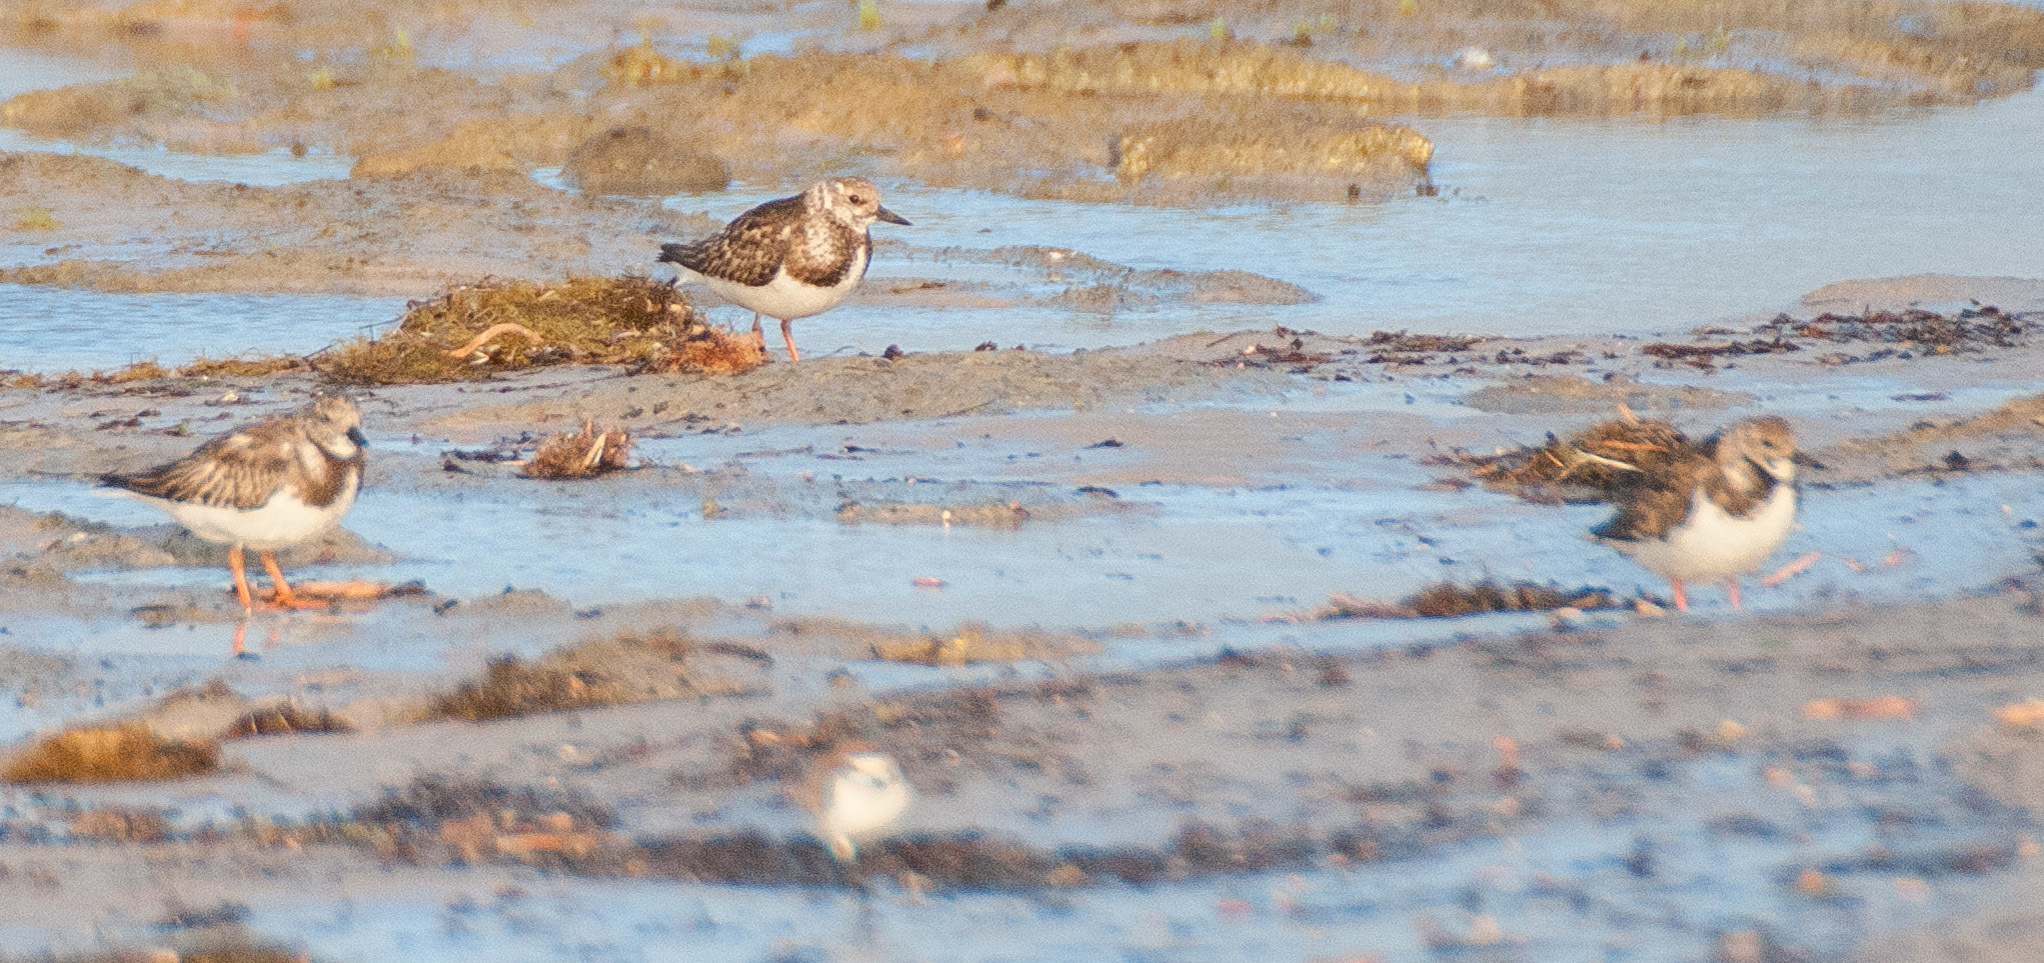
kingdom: Animalia
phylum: Chordata
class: Aves
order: Charadriiformes
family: Scolopacidae
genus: Arenaria
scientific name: Arenaria interpres
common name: Ruddy turnstone
